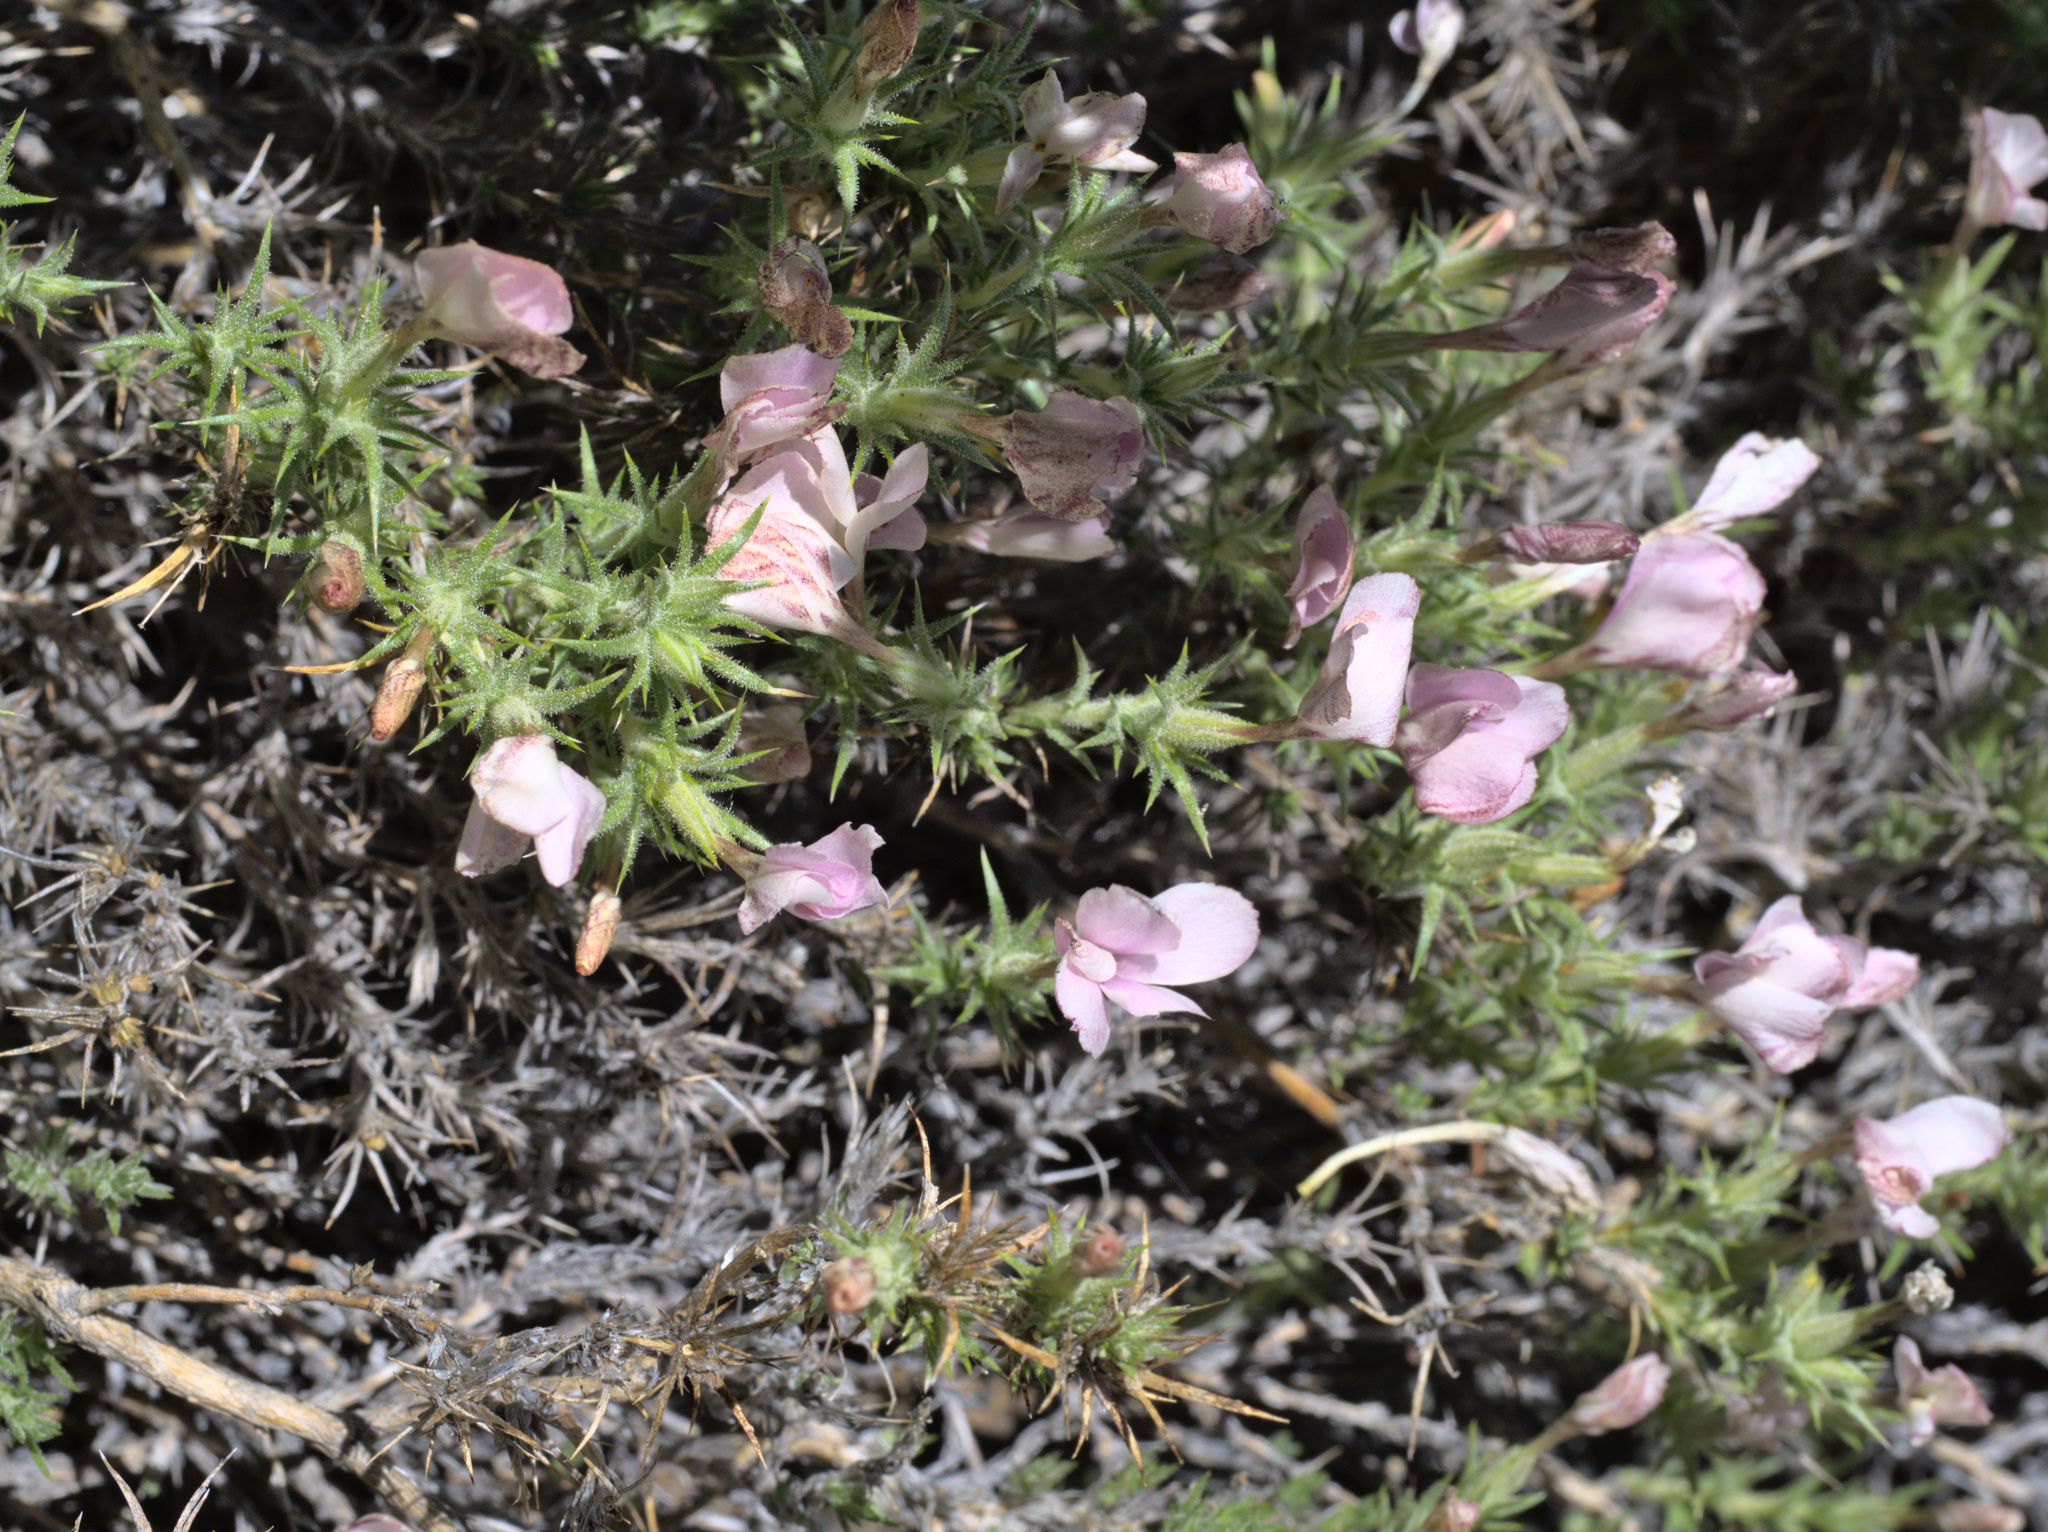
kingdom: Plantae
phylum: Tracheophyta
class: Magnoliopsida
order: Ericales
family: Polemoniaceae
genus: Linanthus
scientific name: Linanthus pungens
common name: Granite prickly phlox
